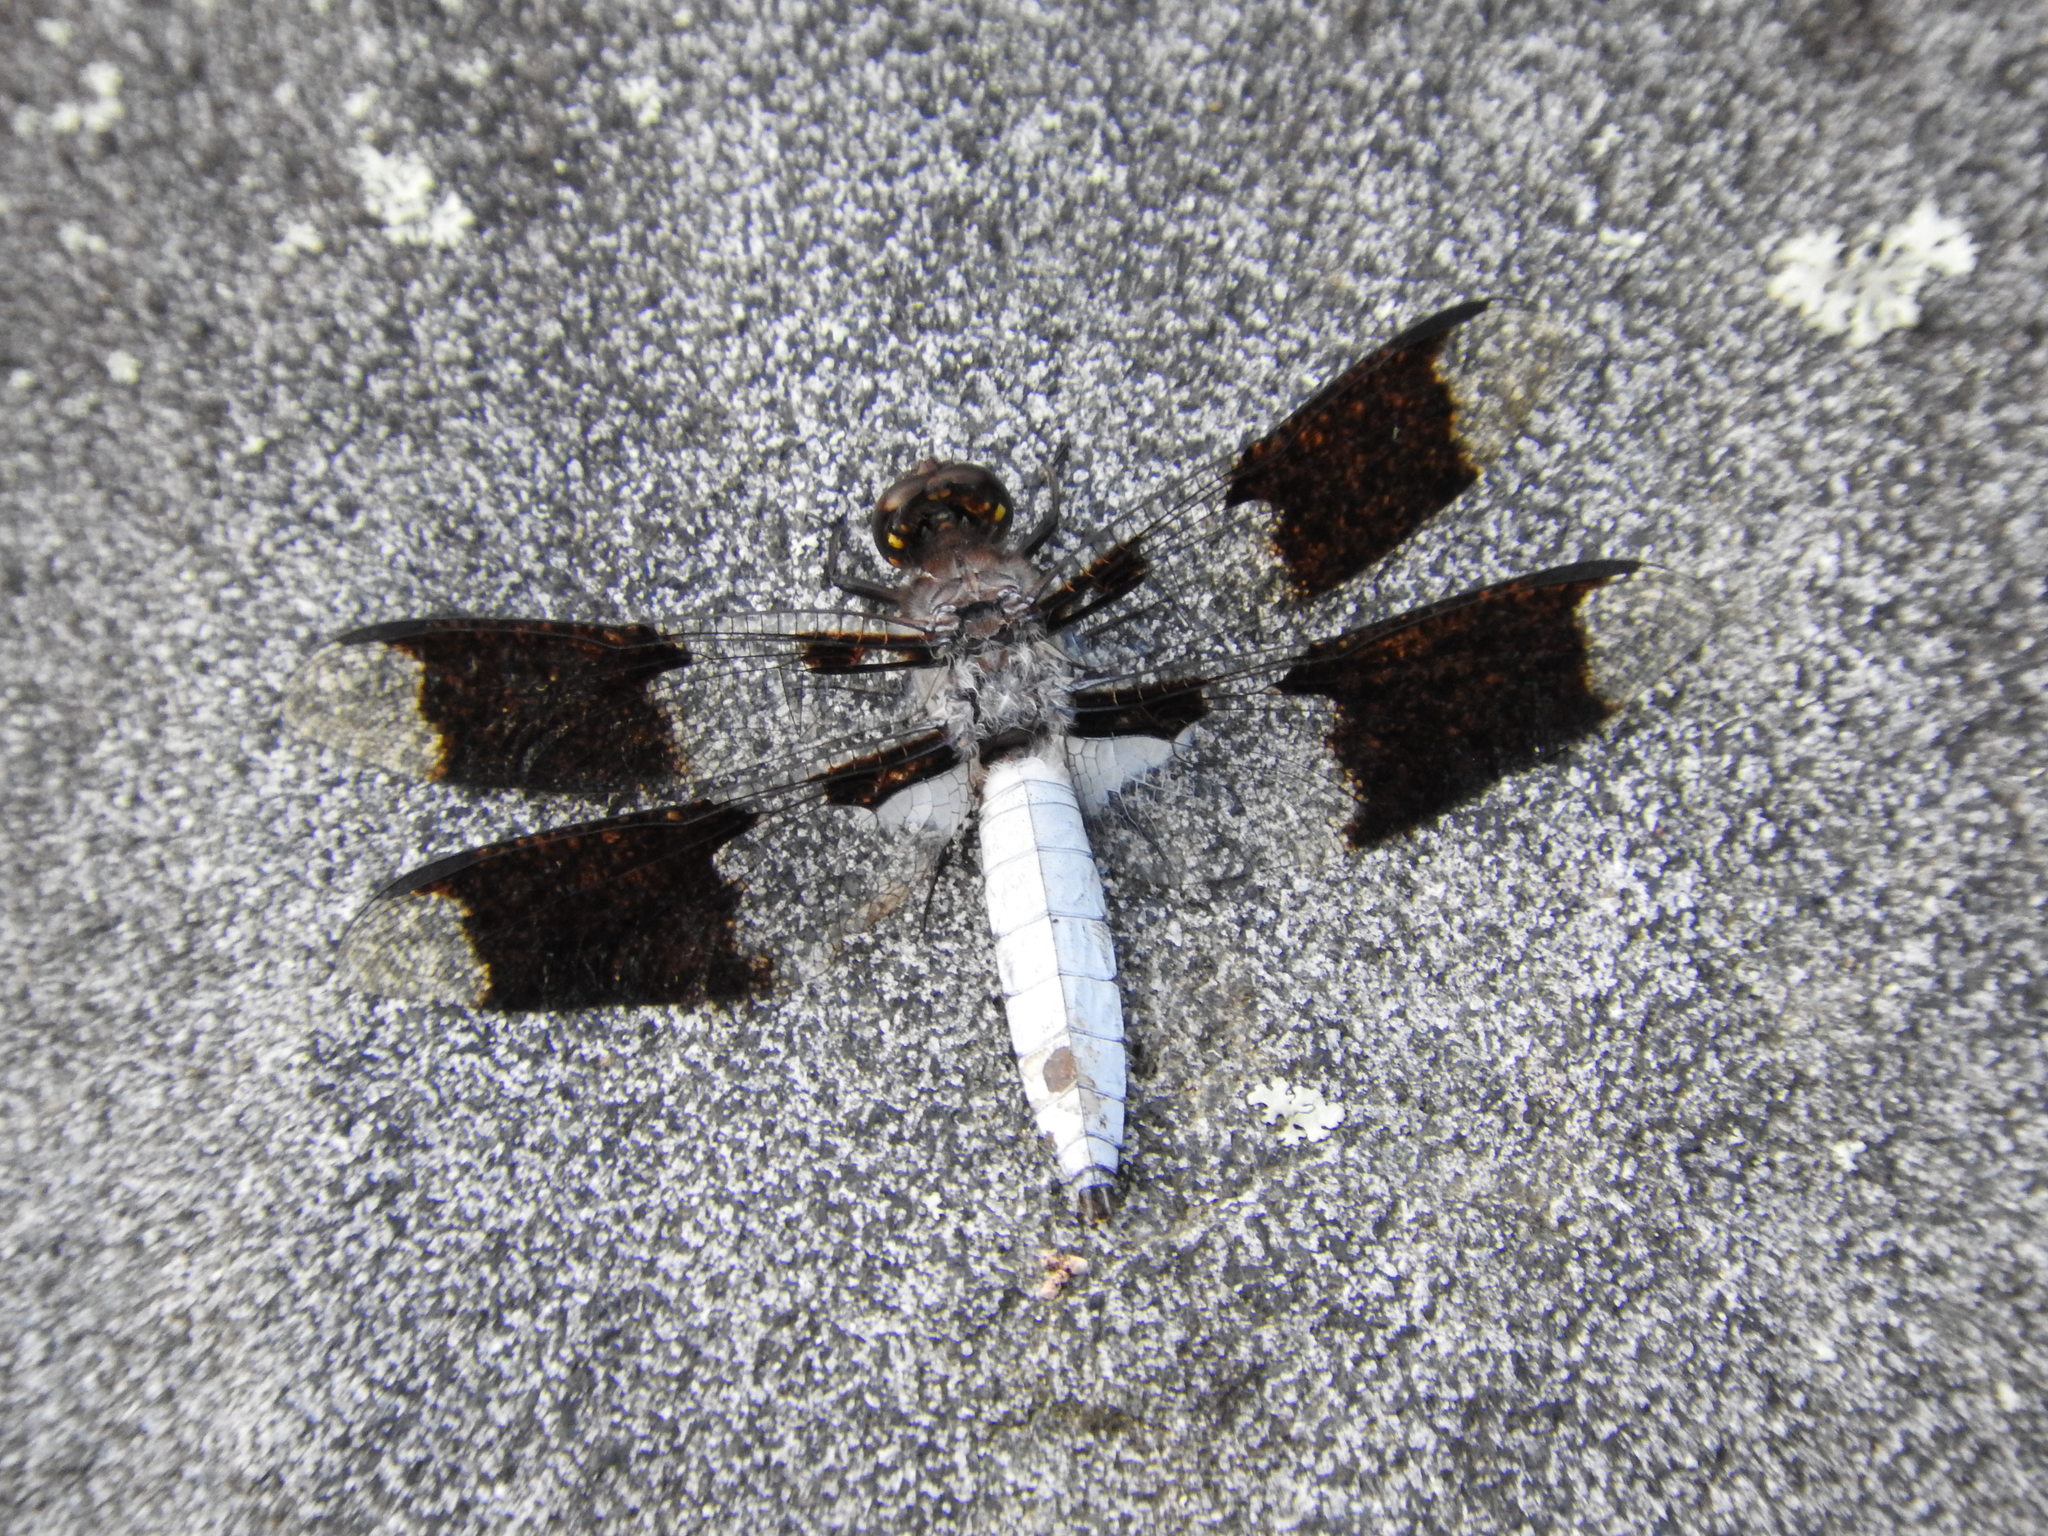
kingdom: Animalia
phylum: Arthropoda
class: Insecta
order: Odonata
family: Libellulidae
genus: Plathemis
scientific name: Plathemis lydia
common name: Common whitetail
